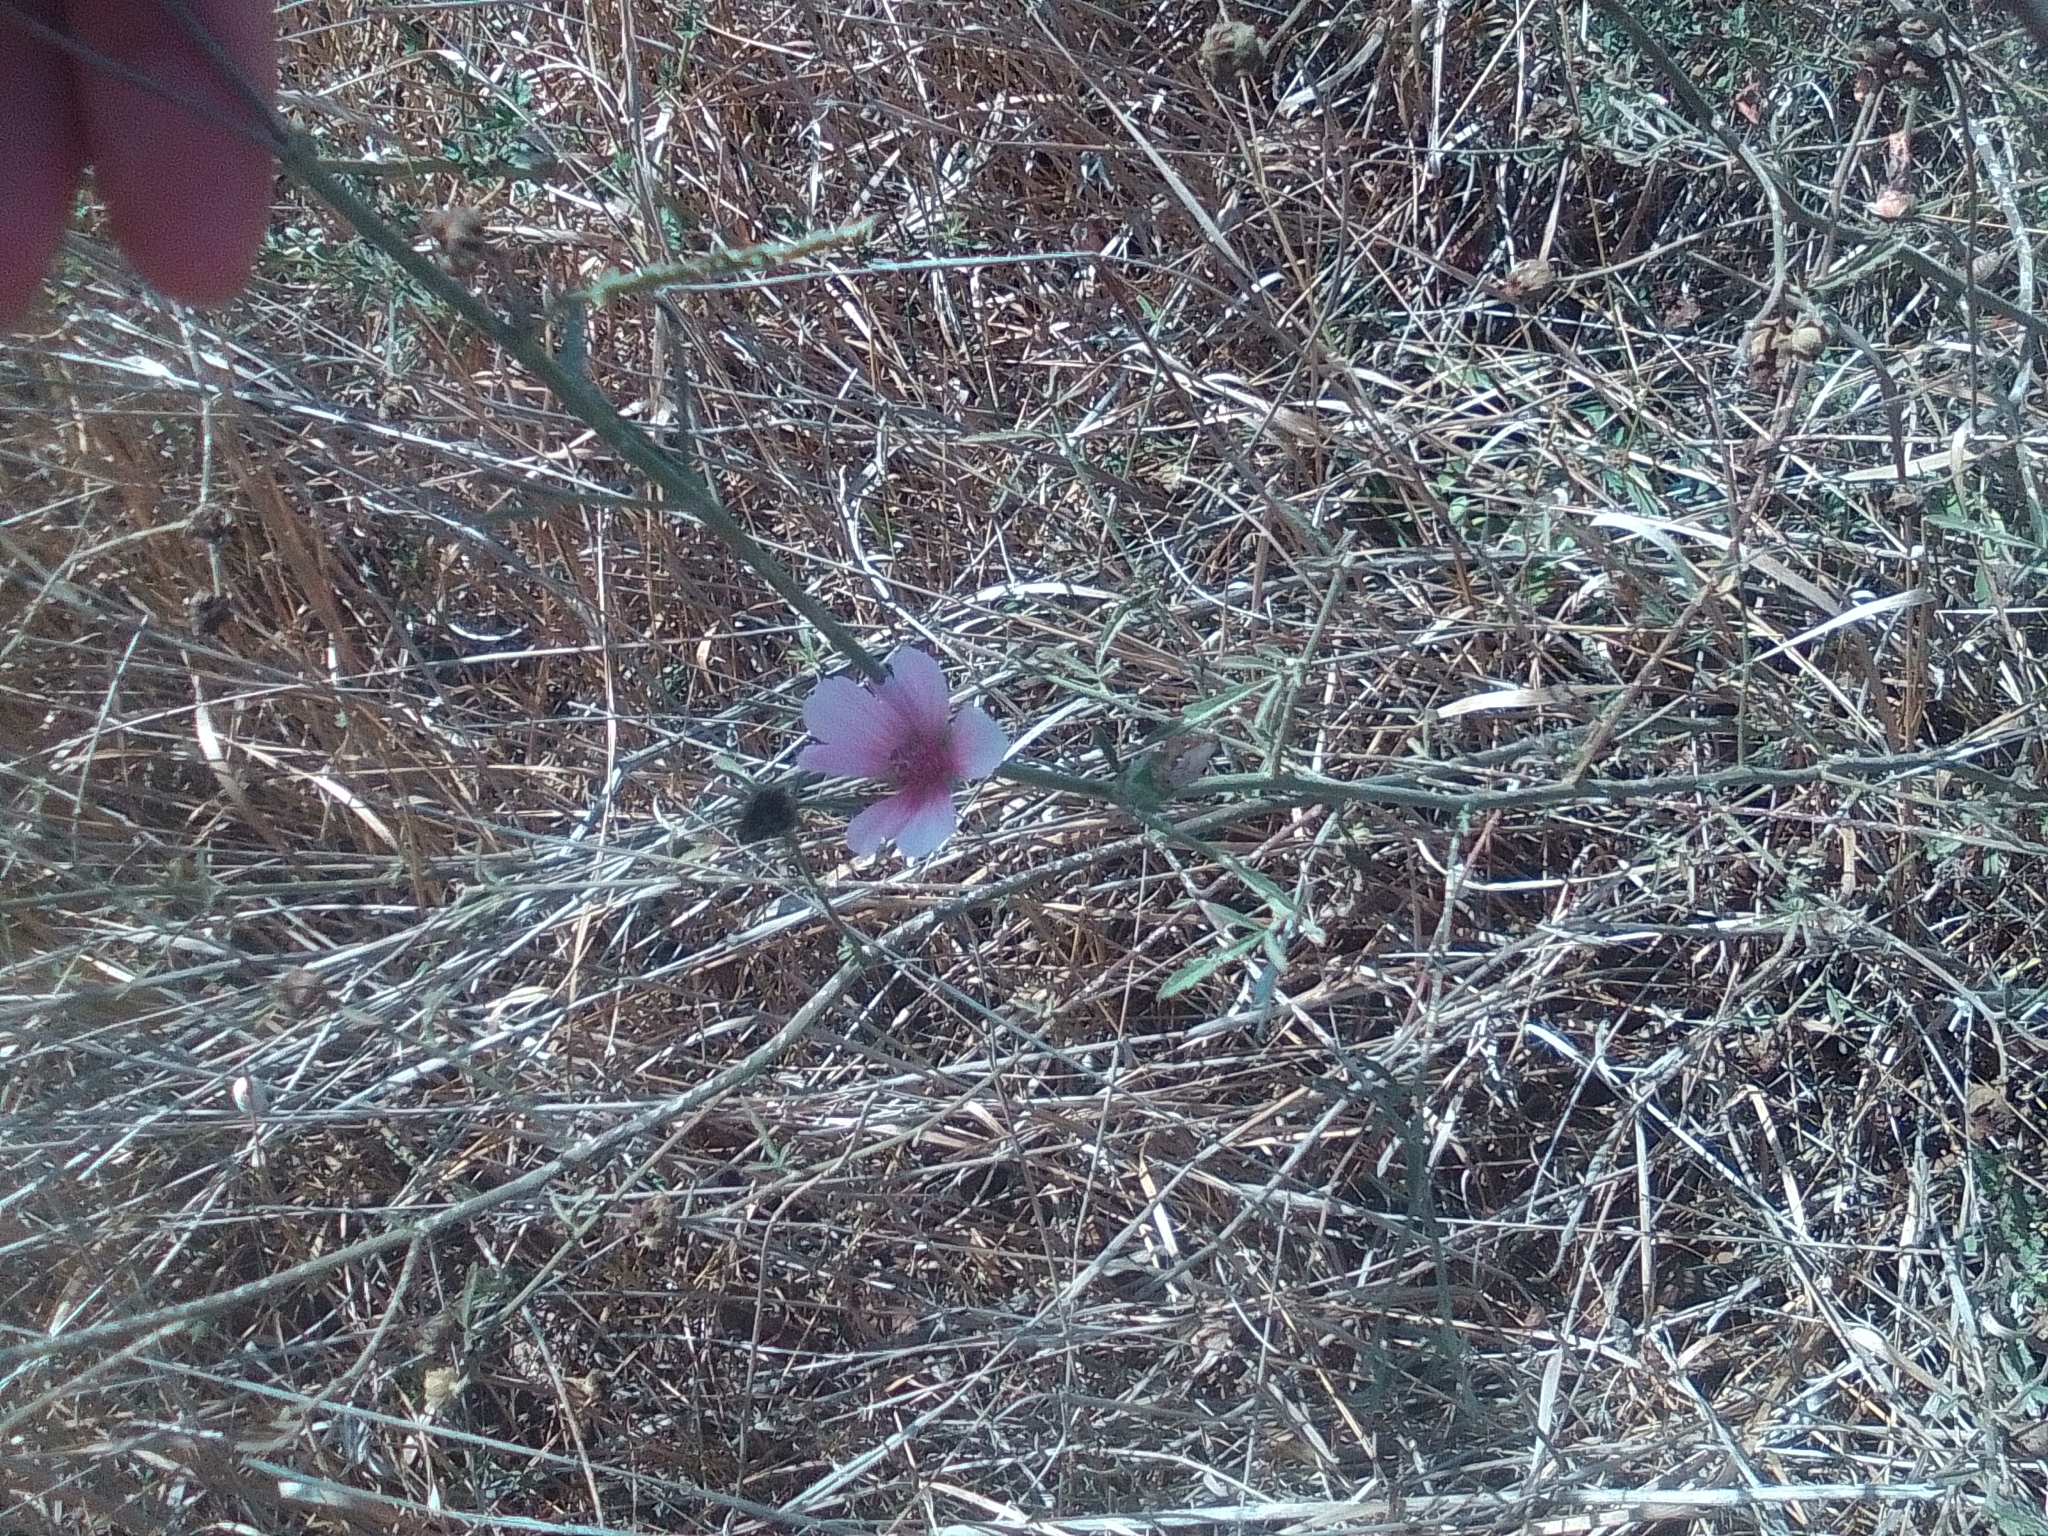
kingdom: Plantae
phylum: Tracheophyta
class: Magnoliopsida
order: Malvales
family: Malvaceae
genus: Althaea
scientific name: Althaea cannabina
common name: Palm-leaf marshmallow
